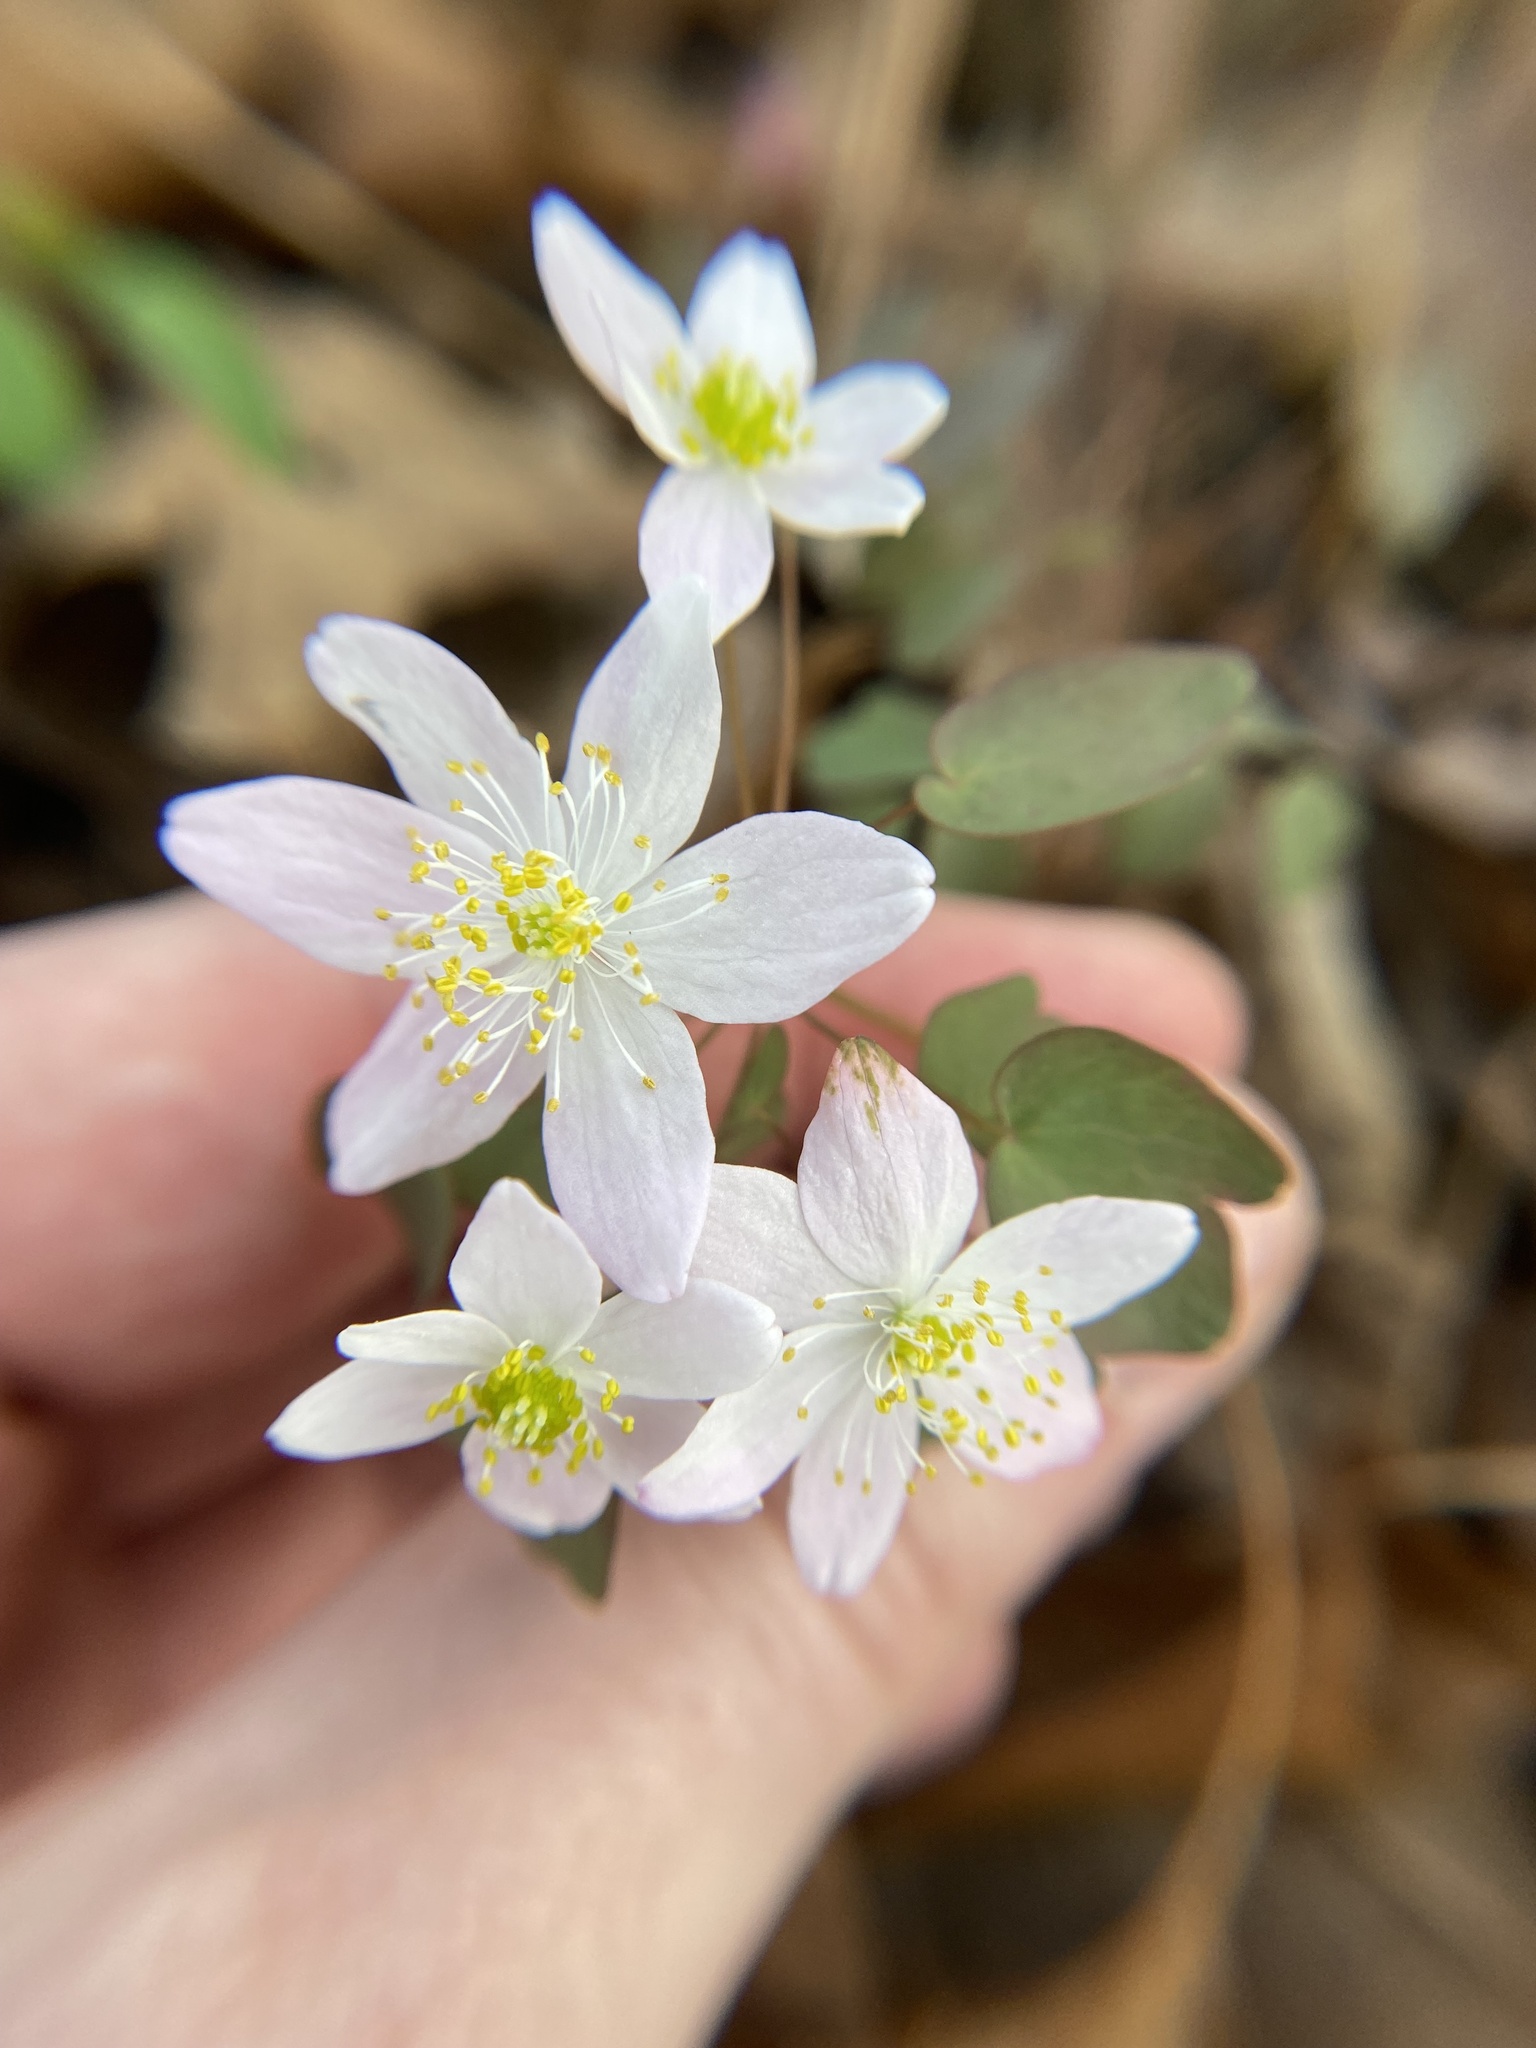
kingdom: Plantae
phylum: Tracheophyta
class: Magnoliopsida
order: Ranunculales
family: Ranunculaceae
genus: Thalictrum
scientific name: Thalictrum thalictroides
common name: Rue-anemone
